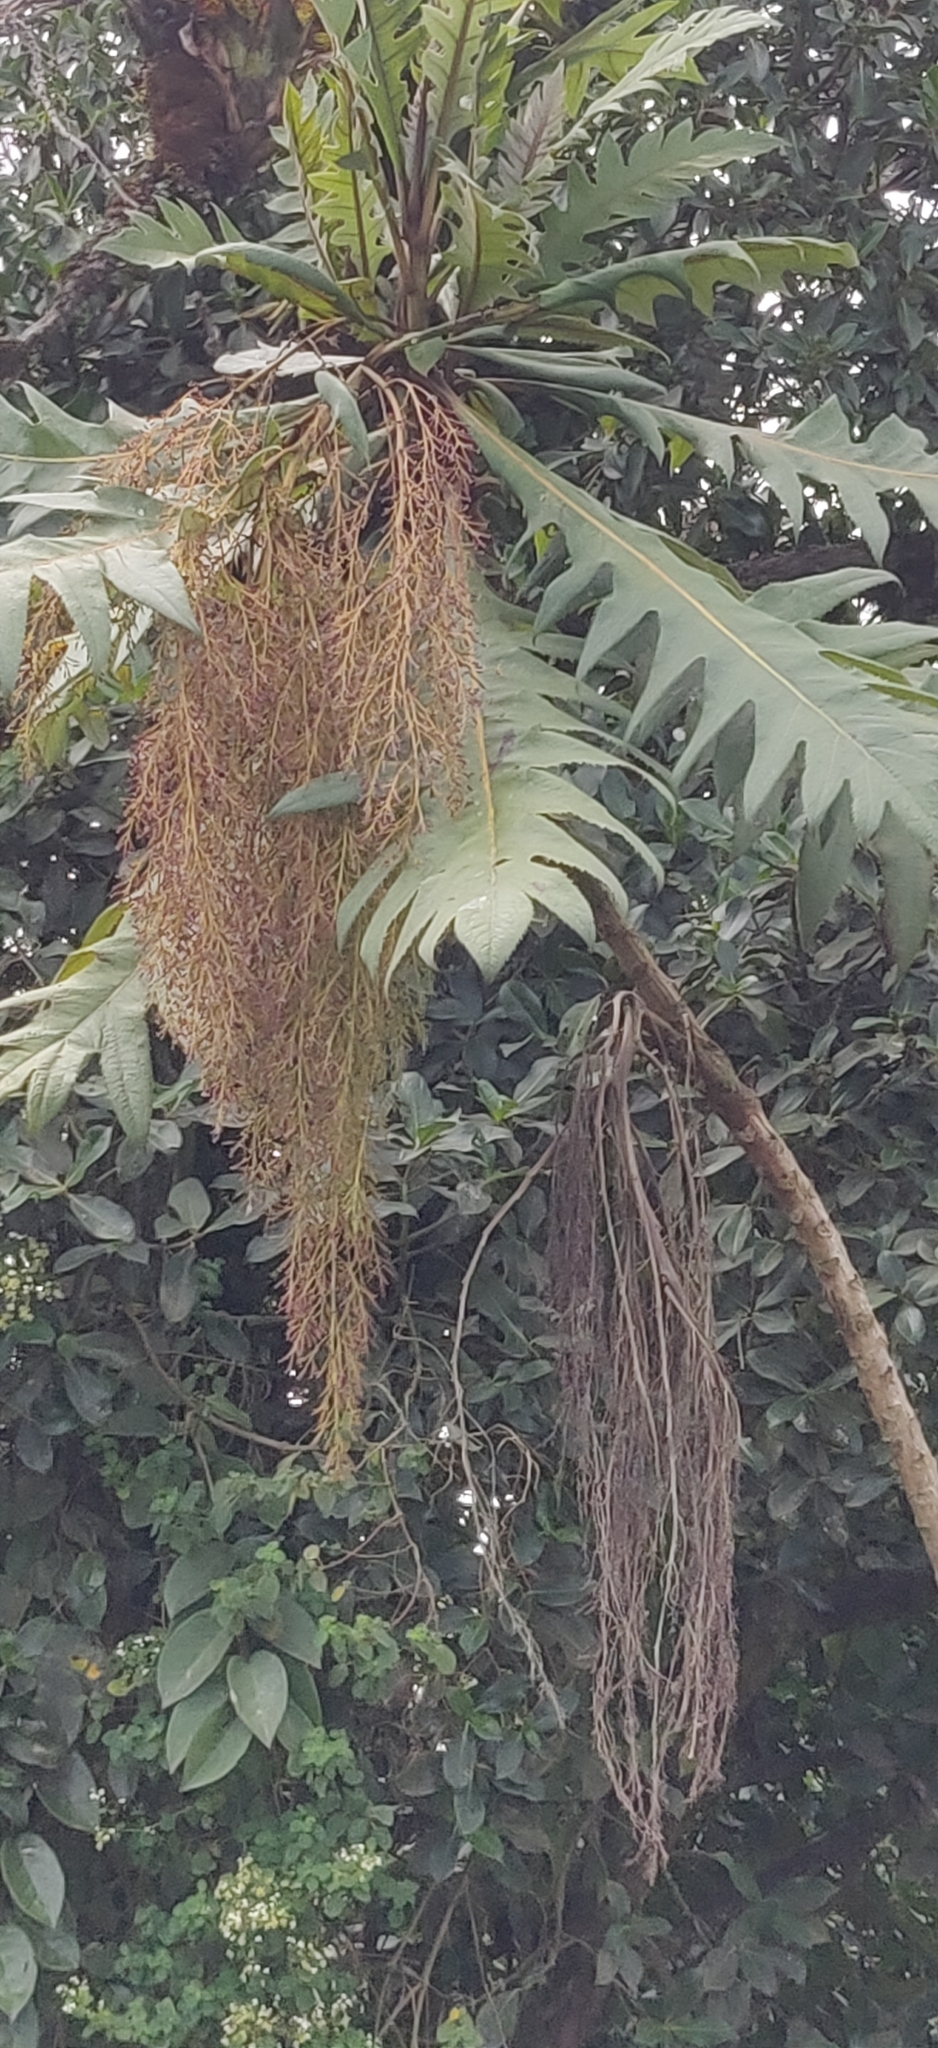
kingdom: Plantae
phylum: Tracheophyta
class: Magnoliopsida
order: Ranunculales
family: Papaveraceae
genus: Bocconia
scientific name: Bocconia frutescens
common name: Tree poppy
